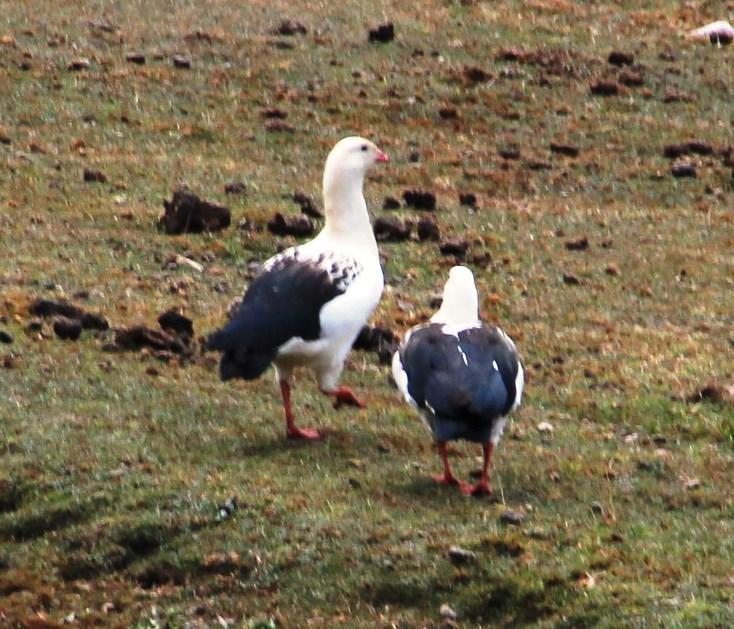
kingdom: Animalia
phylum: Chordata
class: Aves
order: Anseriformes
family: Anatidae
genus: Chloephaga
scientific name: Chloephaga melanoptera
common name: Andean goose
